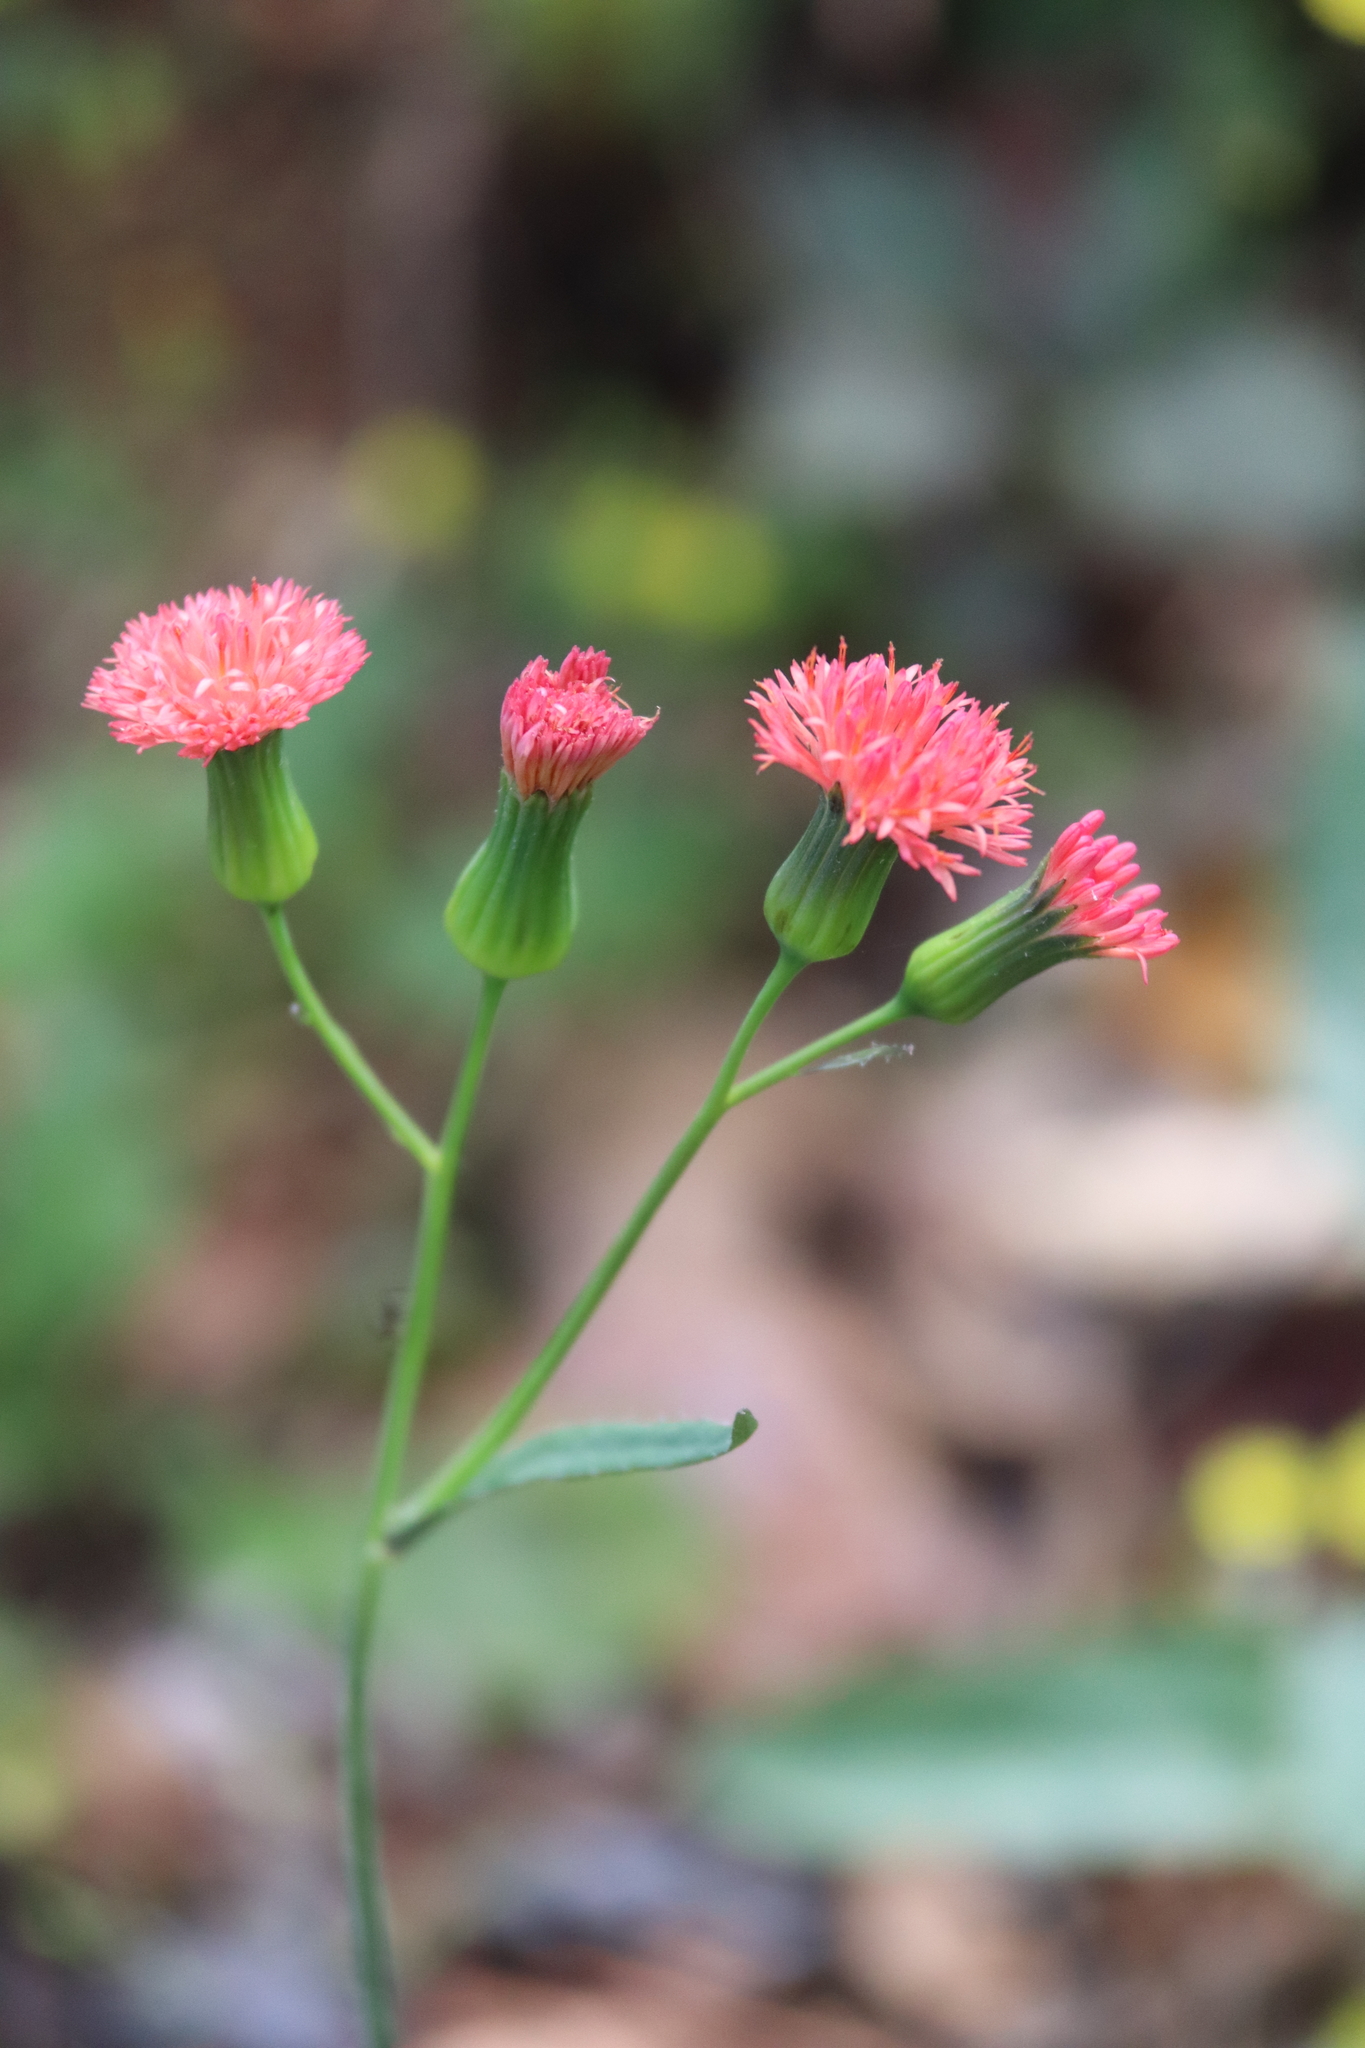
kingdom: Plantae
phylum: Tracheophyta
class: Magnoliopsida
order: Asterales
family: Asteraceae
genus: Emilia
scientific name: Emilia fosbergii
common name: Florida tasselflower
